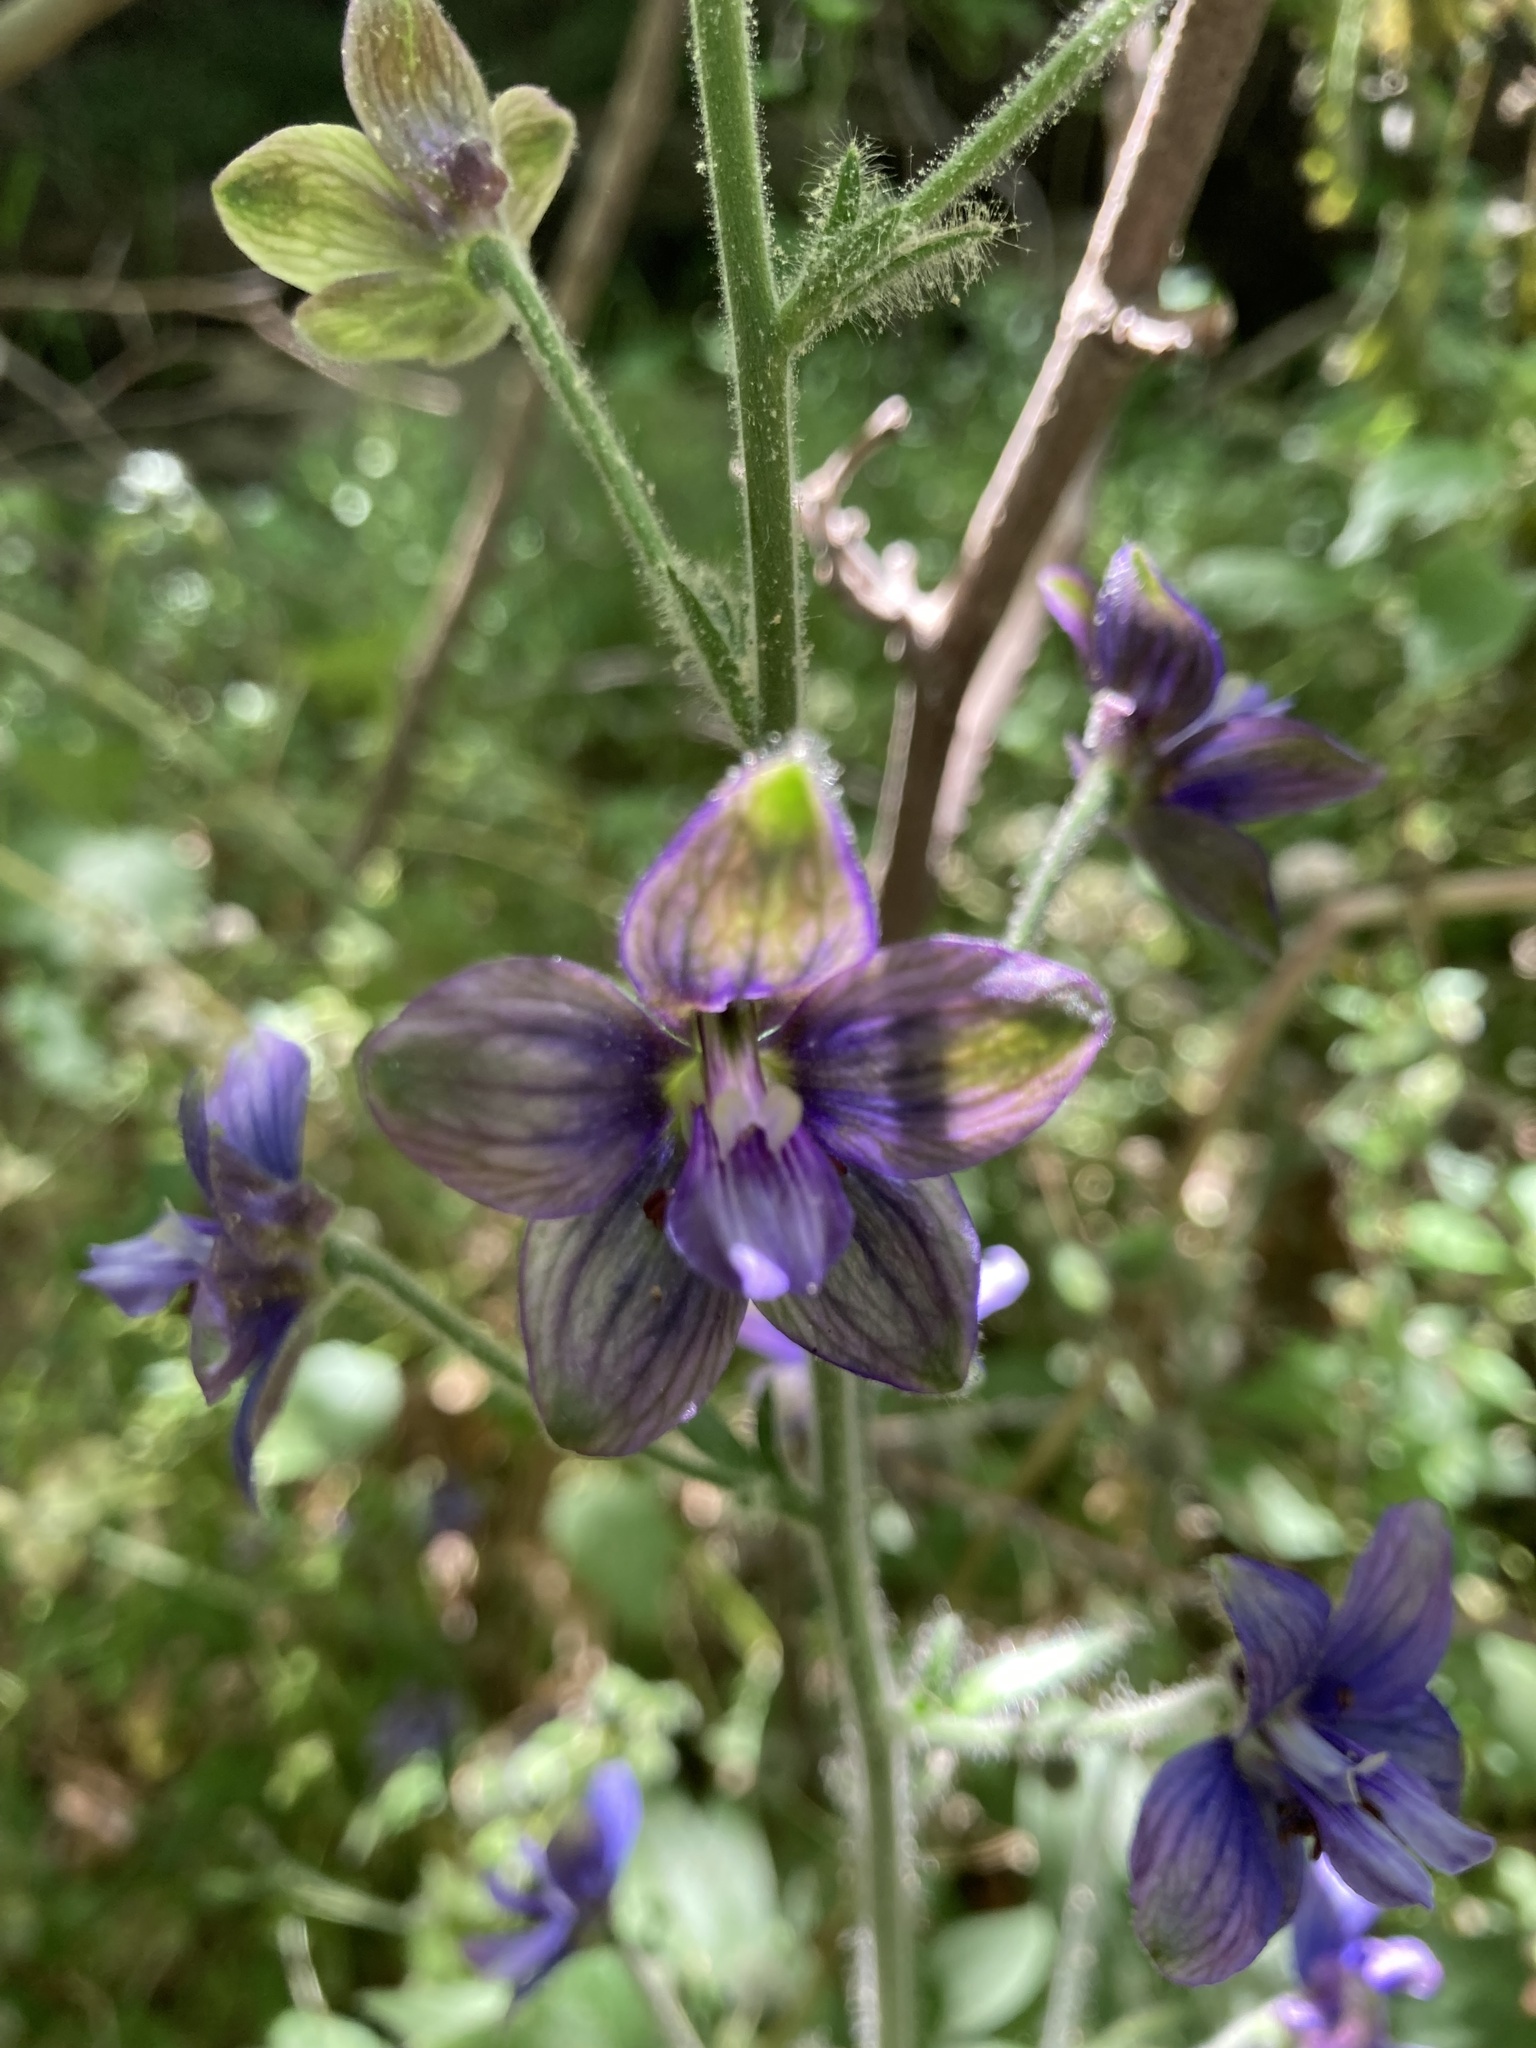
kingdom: Plantae
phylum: Tracheophyta
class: Magnoliopsida
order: Ranunculales
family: Ranunculaceae
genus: Staphisagria
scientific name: Staphisagria macrosperma
